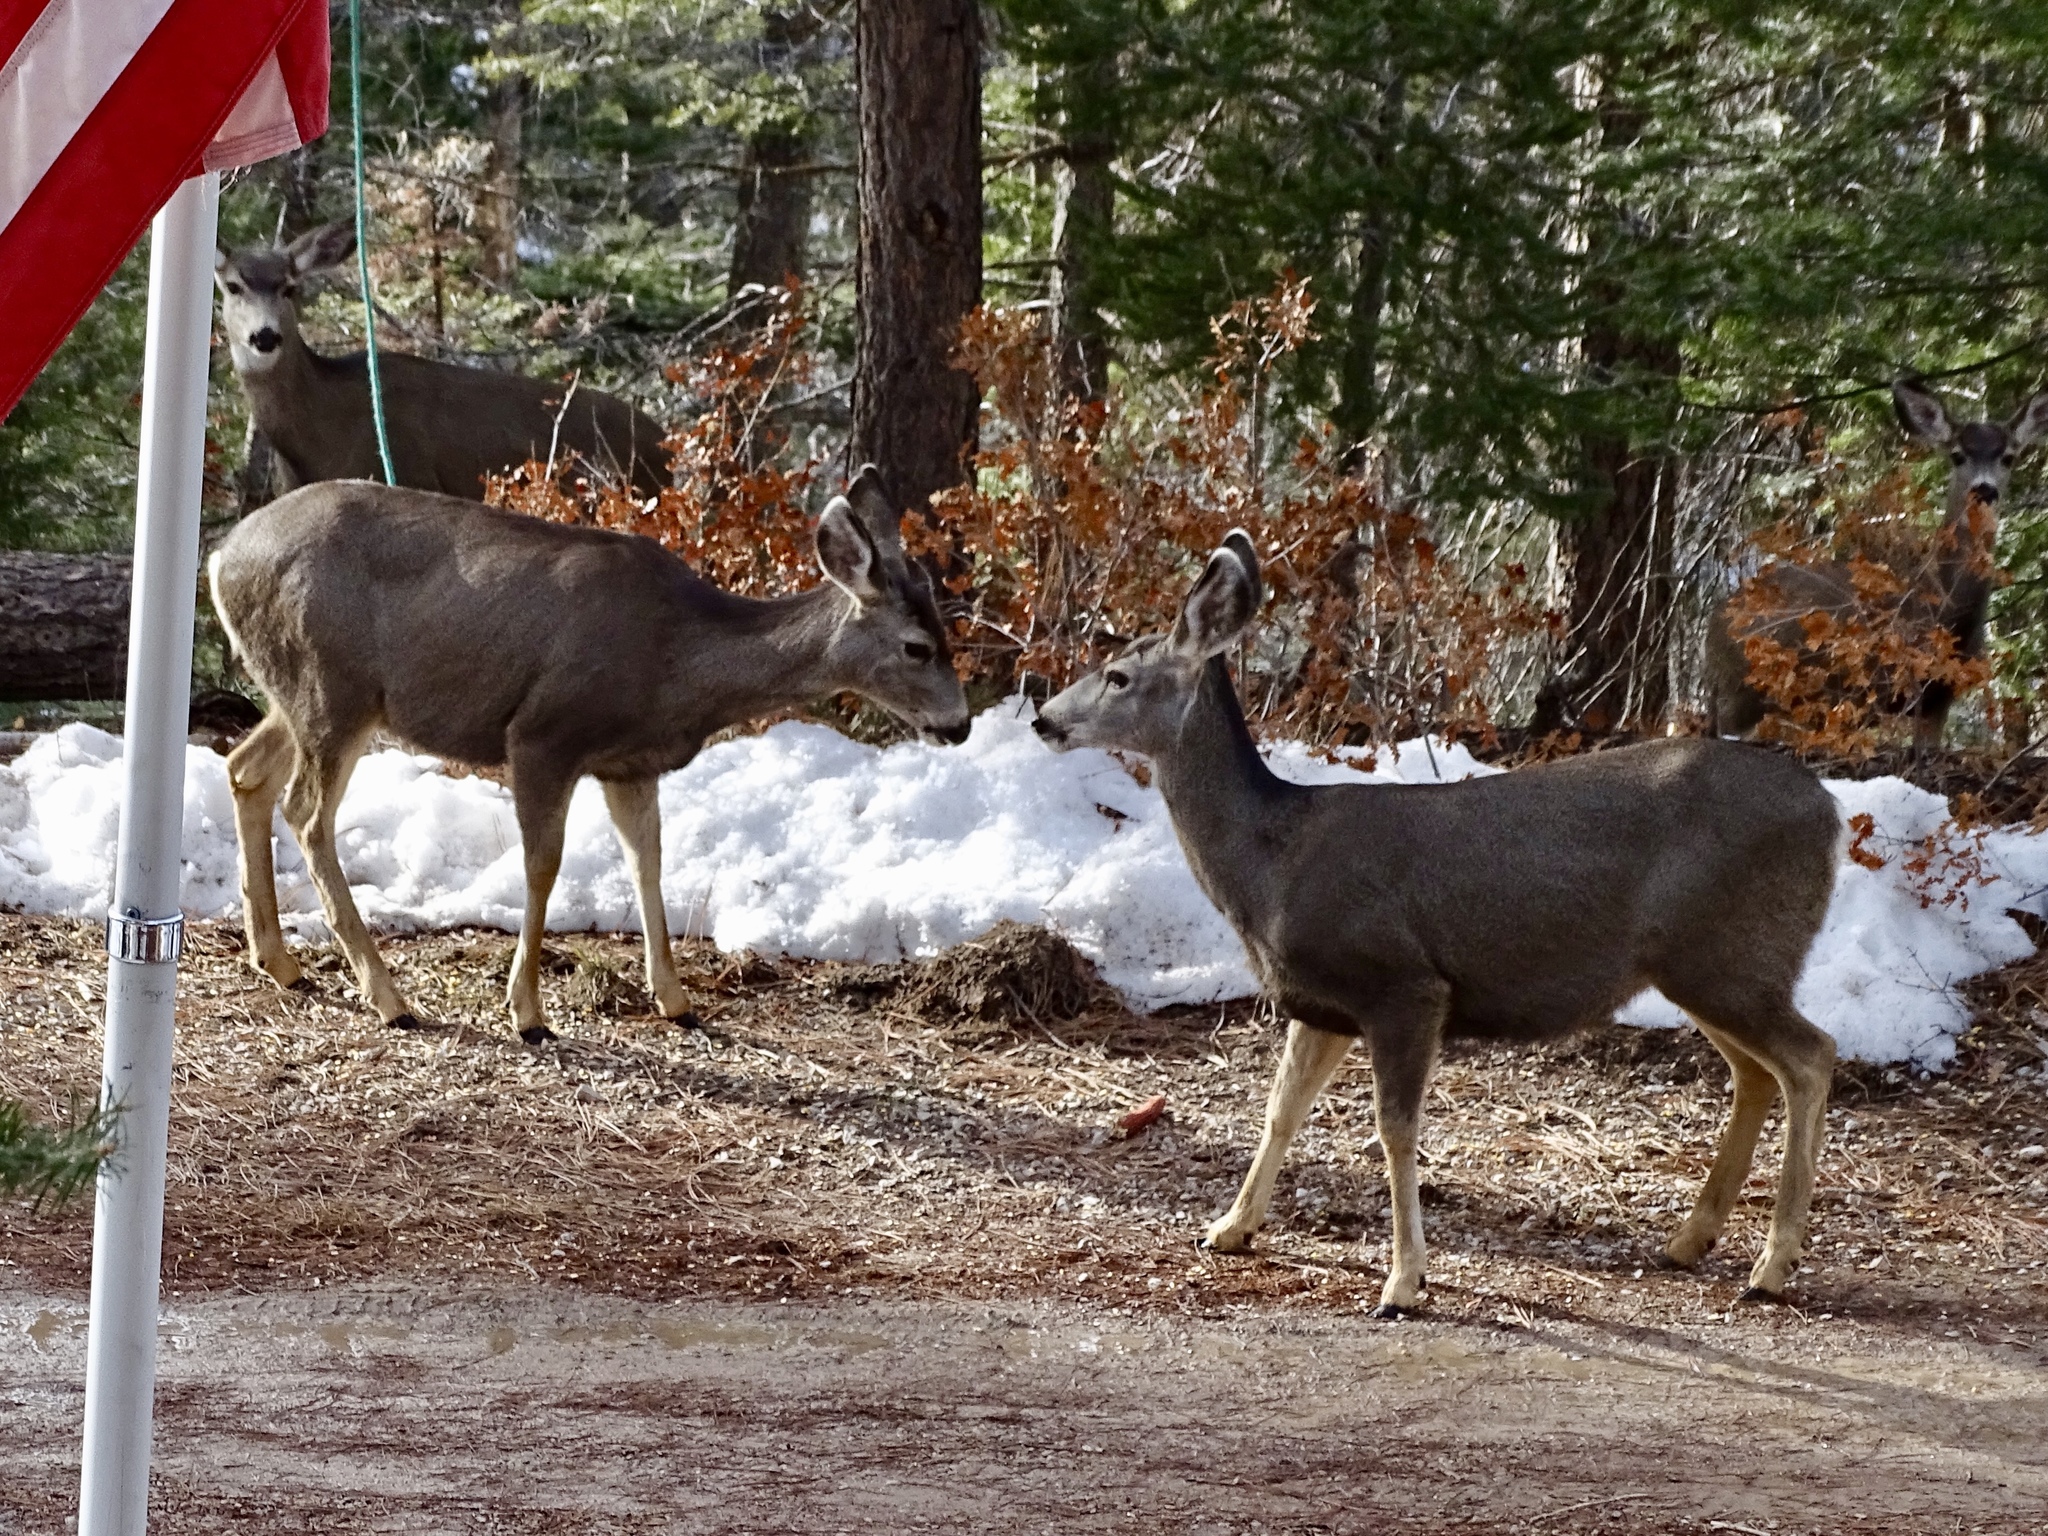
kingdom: Animalia
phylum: Chordata
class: Mammalia
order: Artiodactyla
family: Cervidae
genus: Odocoileus
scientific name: Odocoileus hemionus
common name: Mule deer
